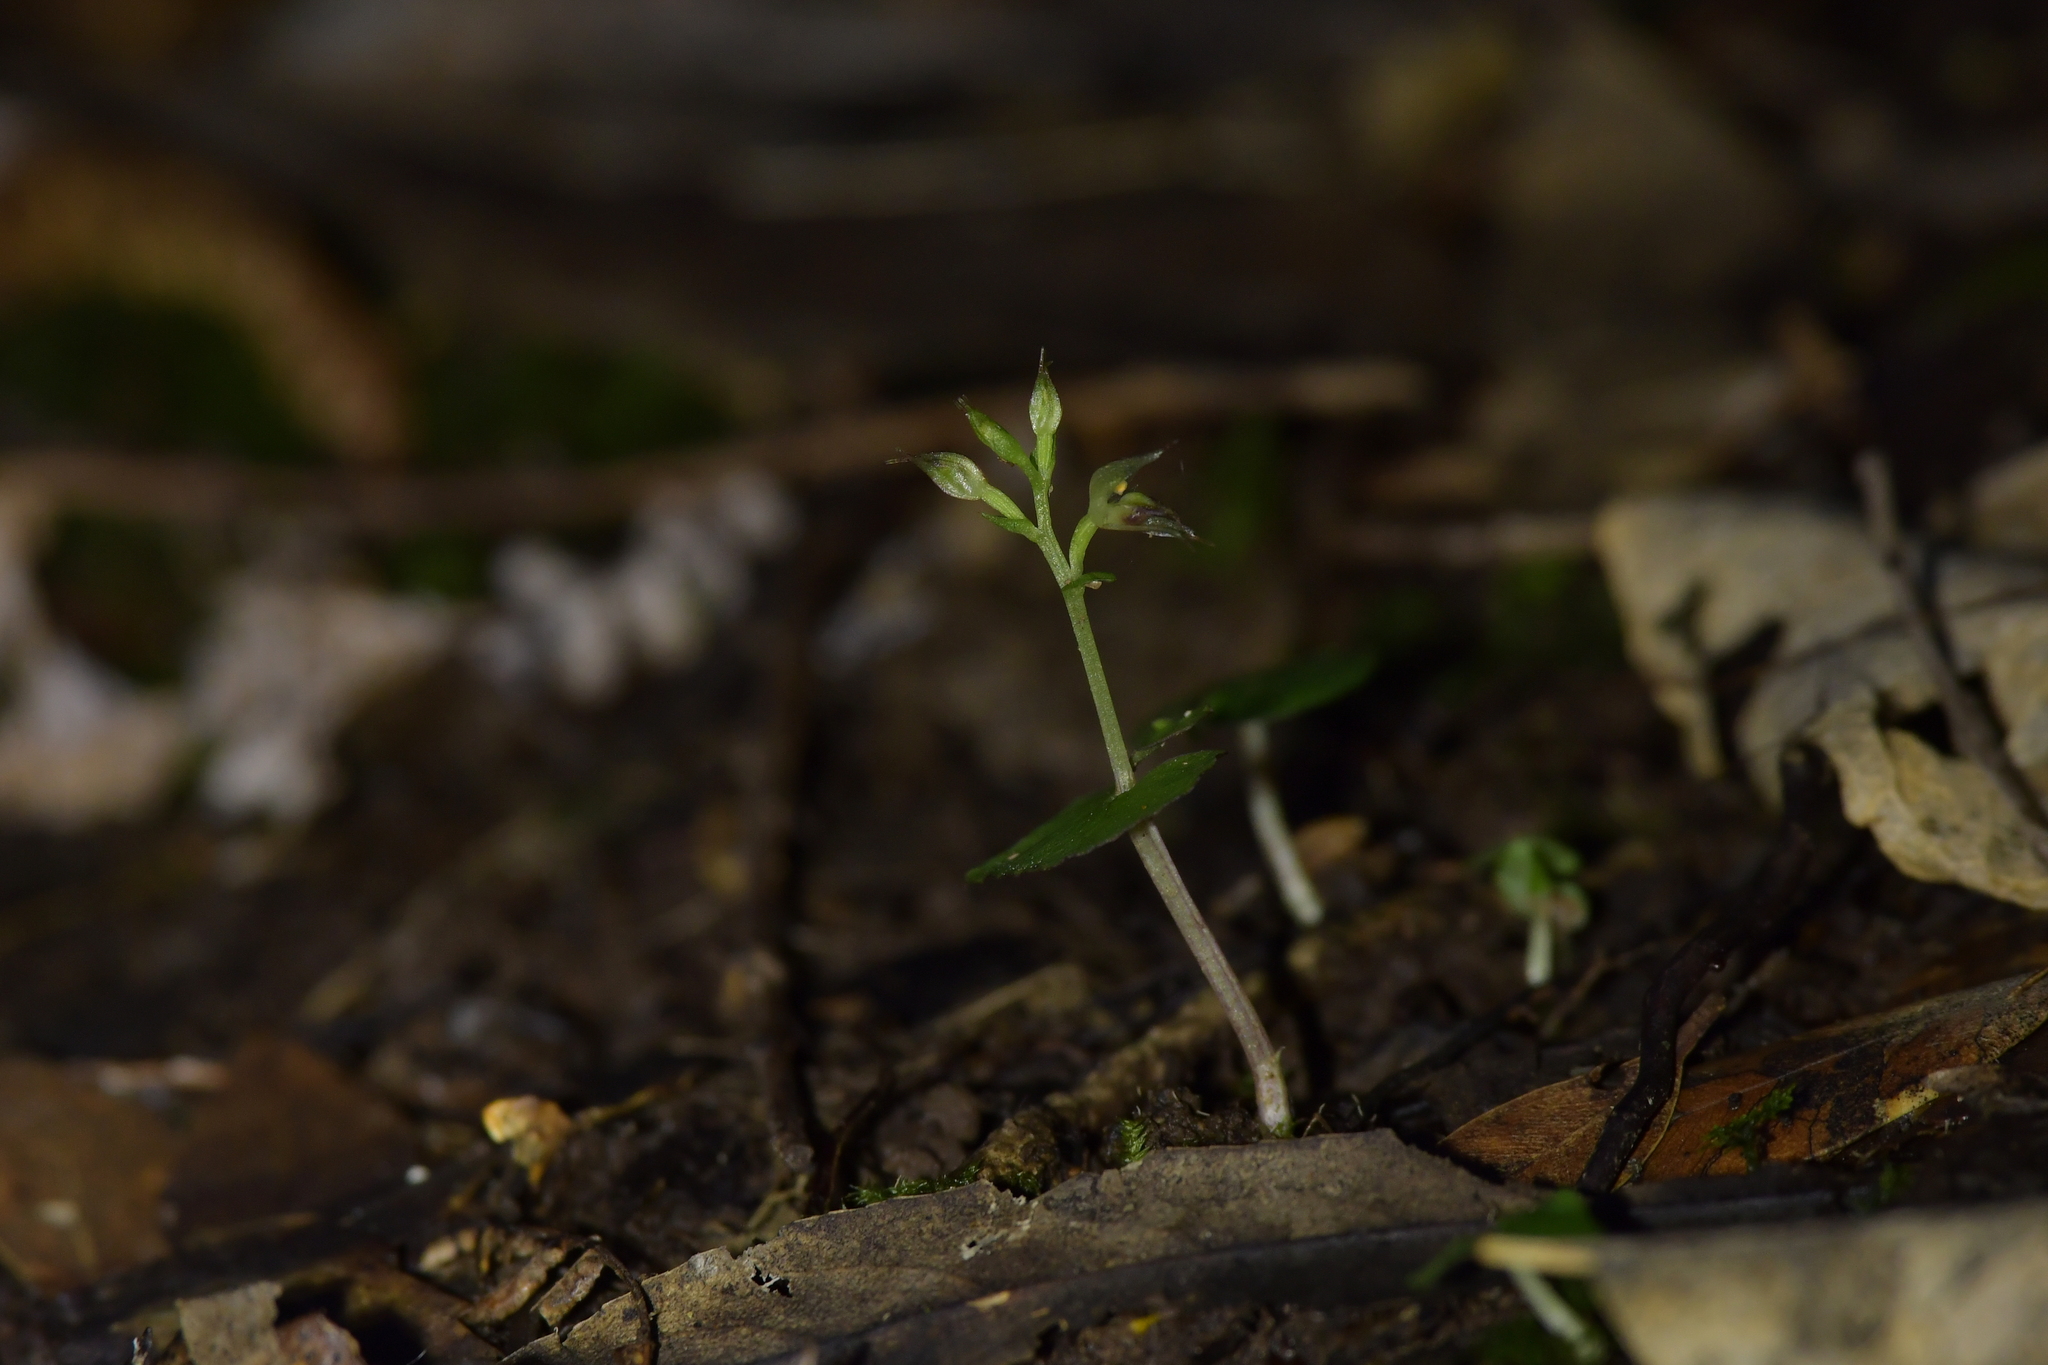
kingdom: Plantae
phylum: Tracheophyta
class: Liliopsida
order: Asparagales
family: Orchidaceae
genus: Acianthus
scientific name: Acianthus sinclairii
